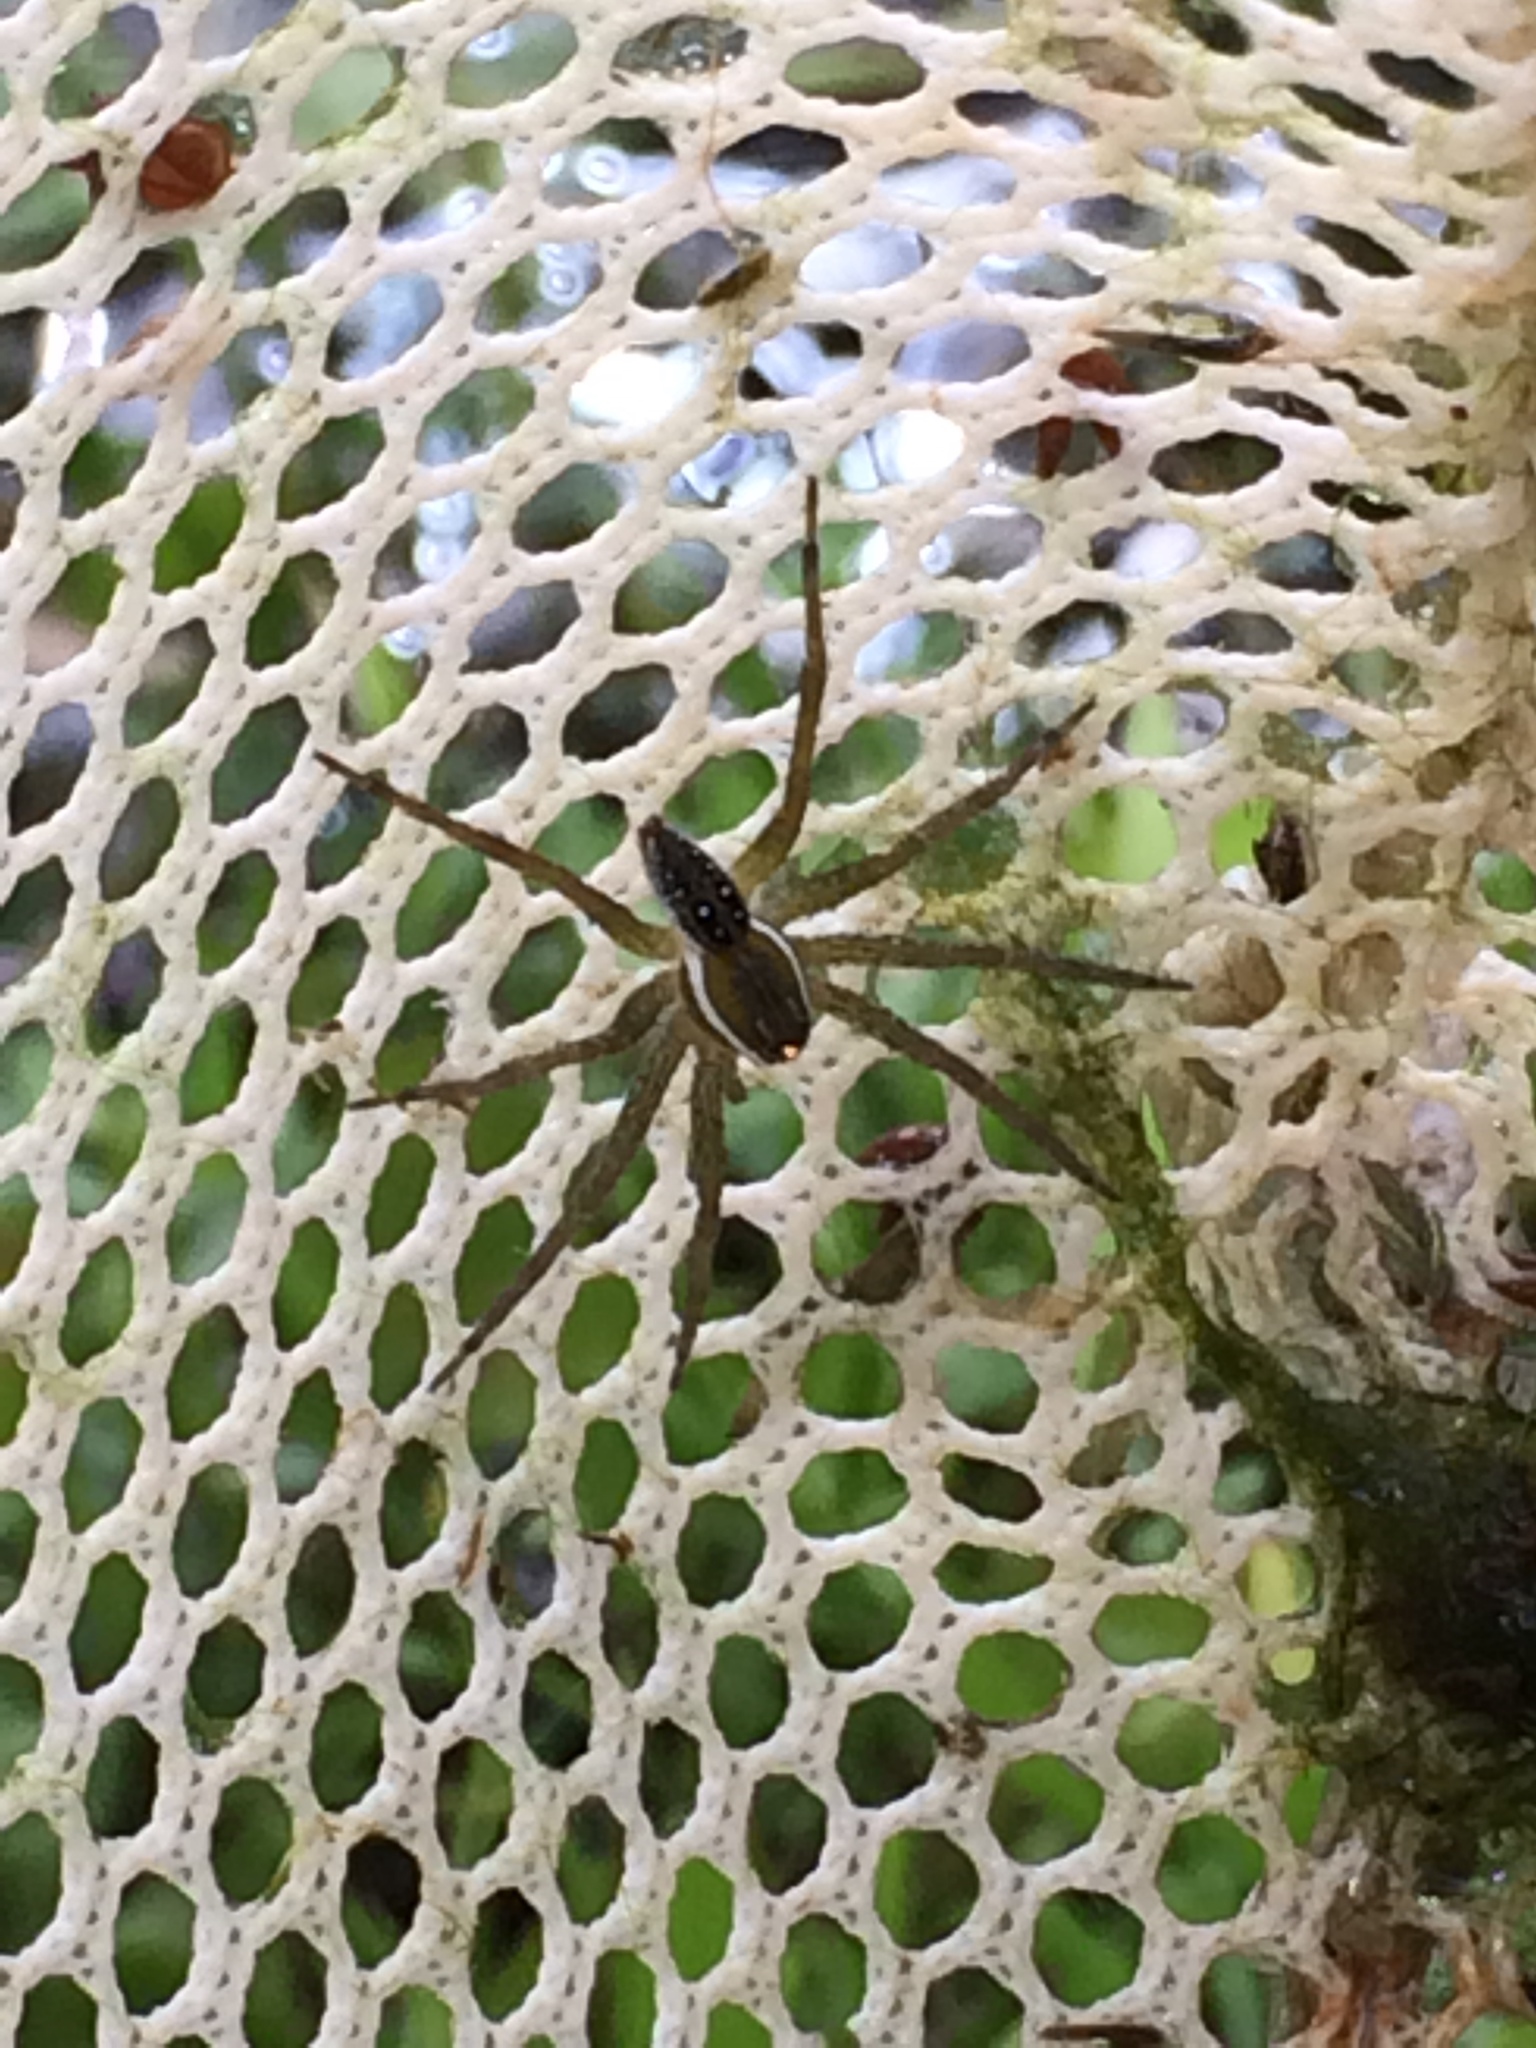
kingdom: Animalia
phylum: Arthropoda
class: Arachnida
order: Araneae
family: Pisauridae
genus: Dolomedes
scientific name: Dolomedes triton
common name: Six-spotted fishing spider
